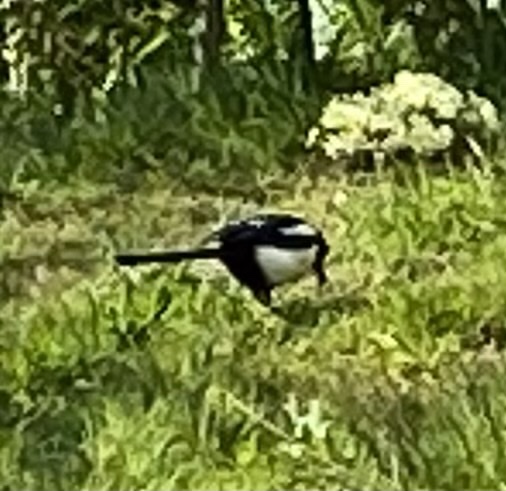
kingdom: Animalia
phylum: Chordata
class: Aves
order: Passeriformes
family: Corvidae
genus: Pica
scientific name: Pica pica
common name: Eurasian magpie
